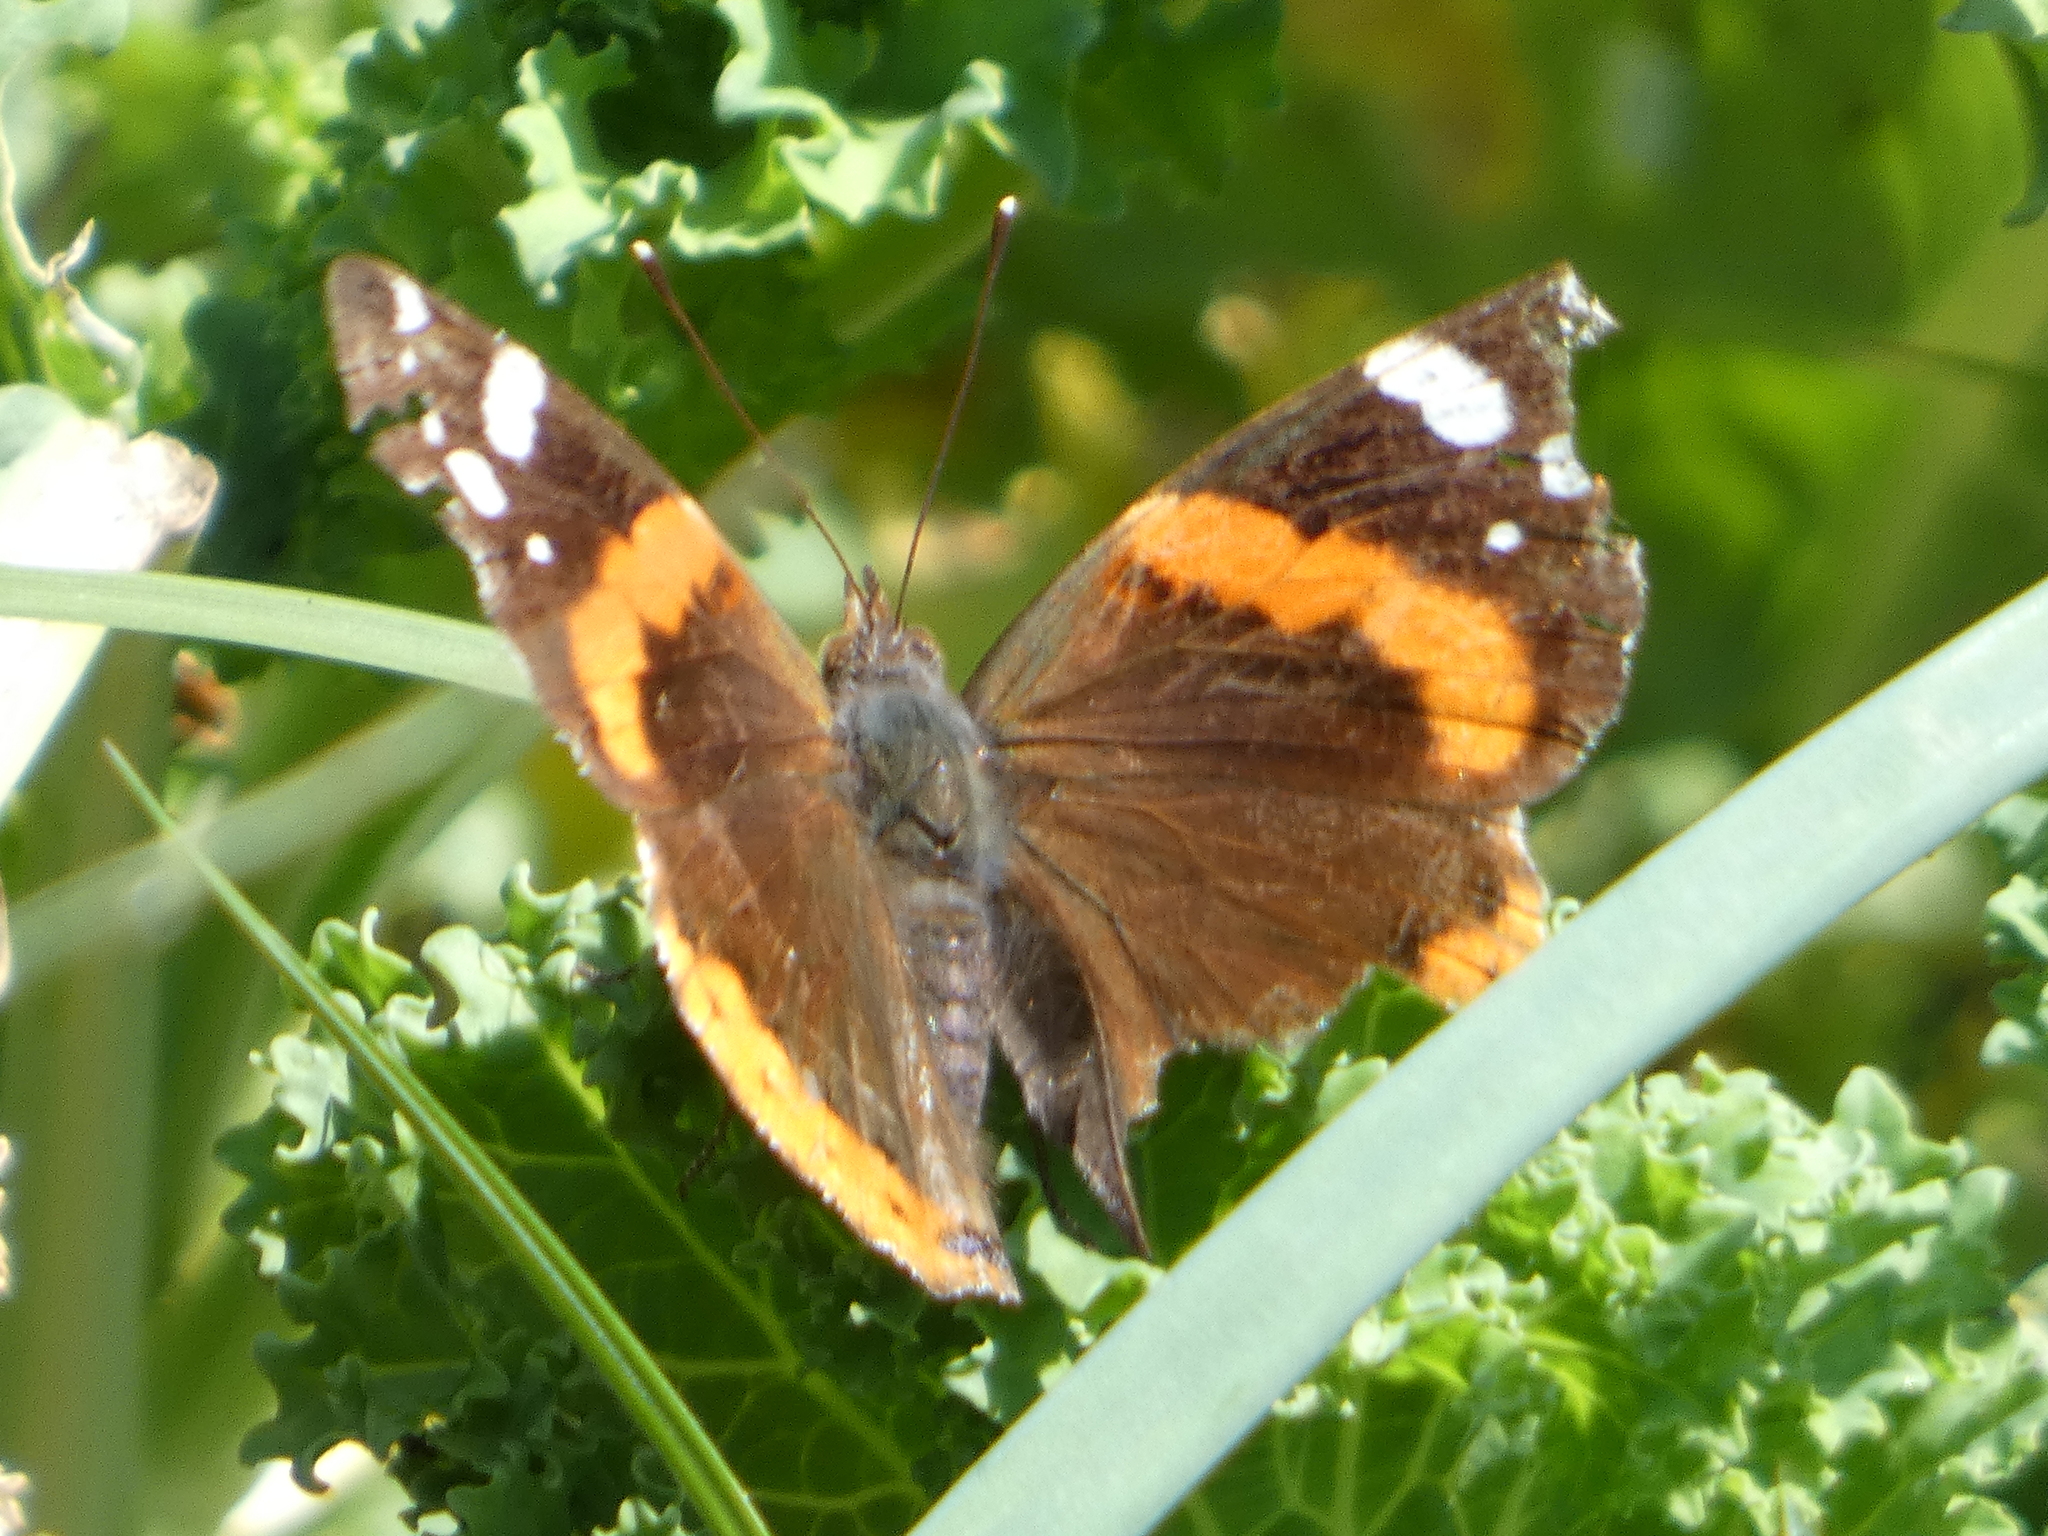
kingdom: Animalia
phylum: Arthropoda
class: Insecta
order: Lepidoptera
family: Nymphalidae
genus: Vanessa
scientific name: Vanessa atalanta
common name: Red admiral
